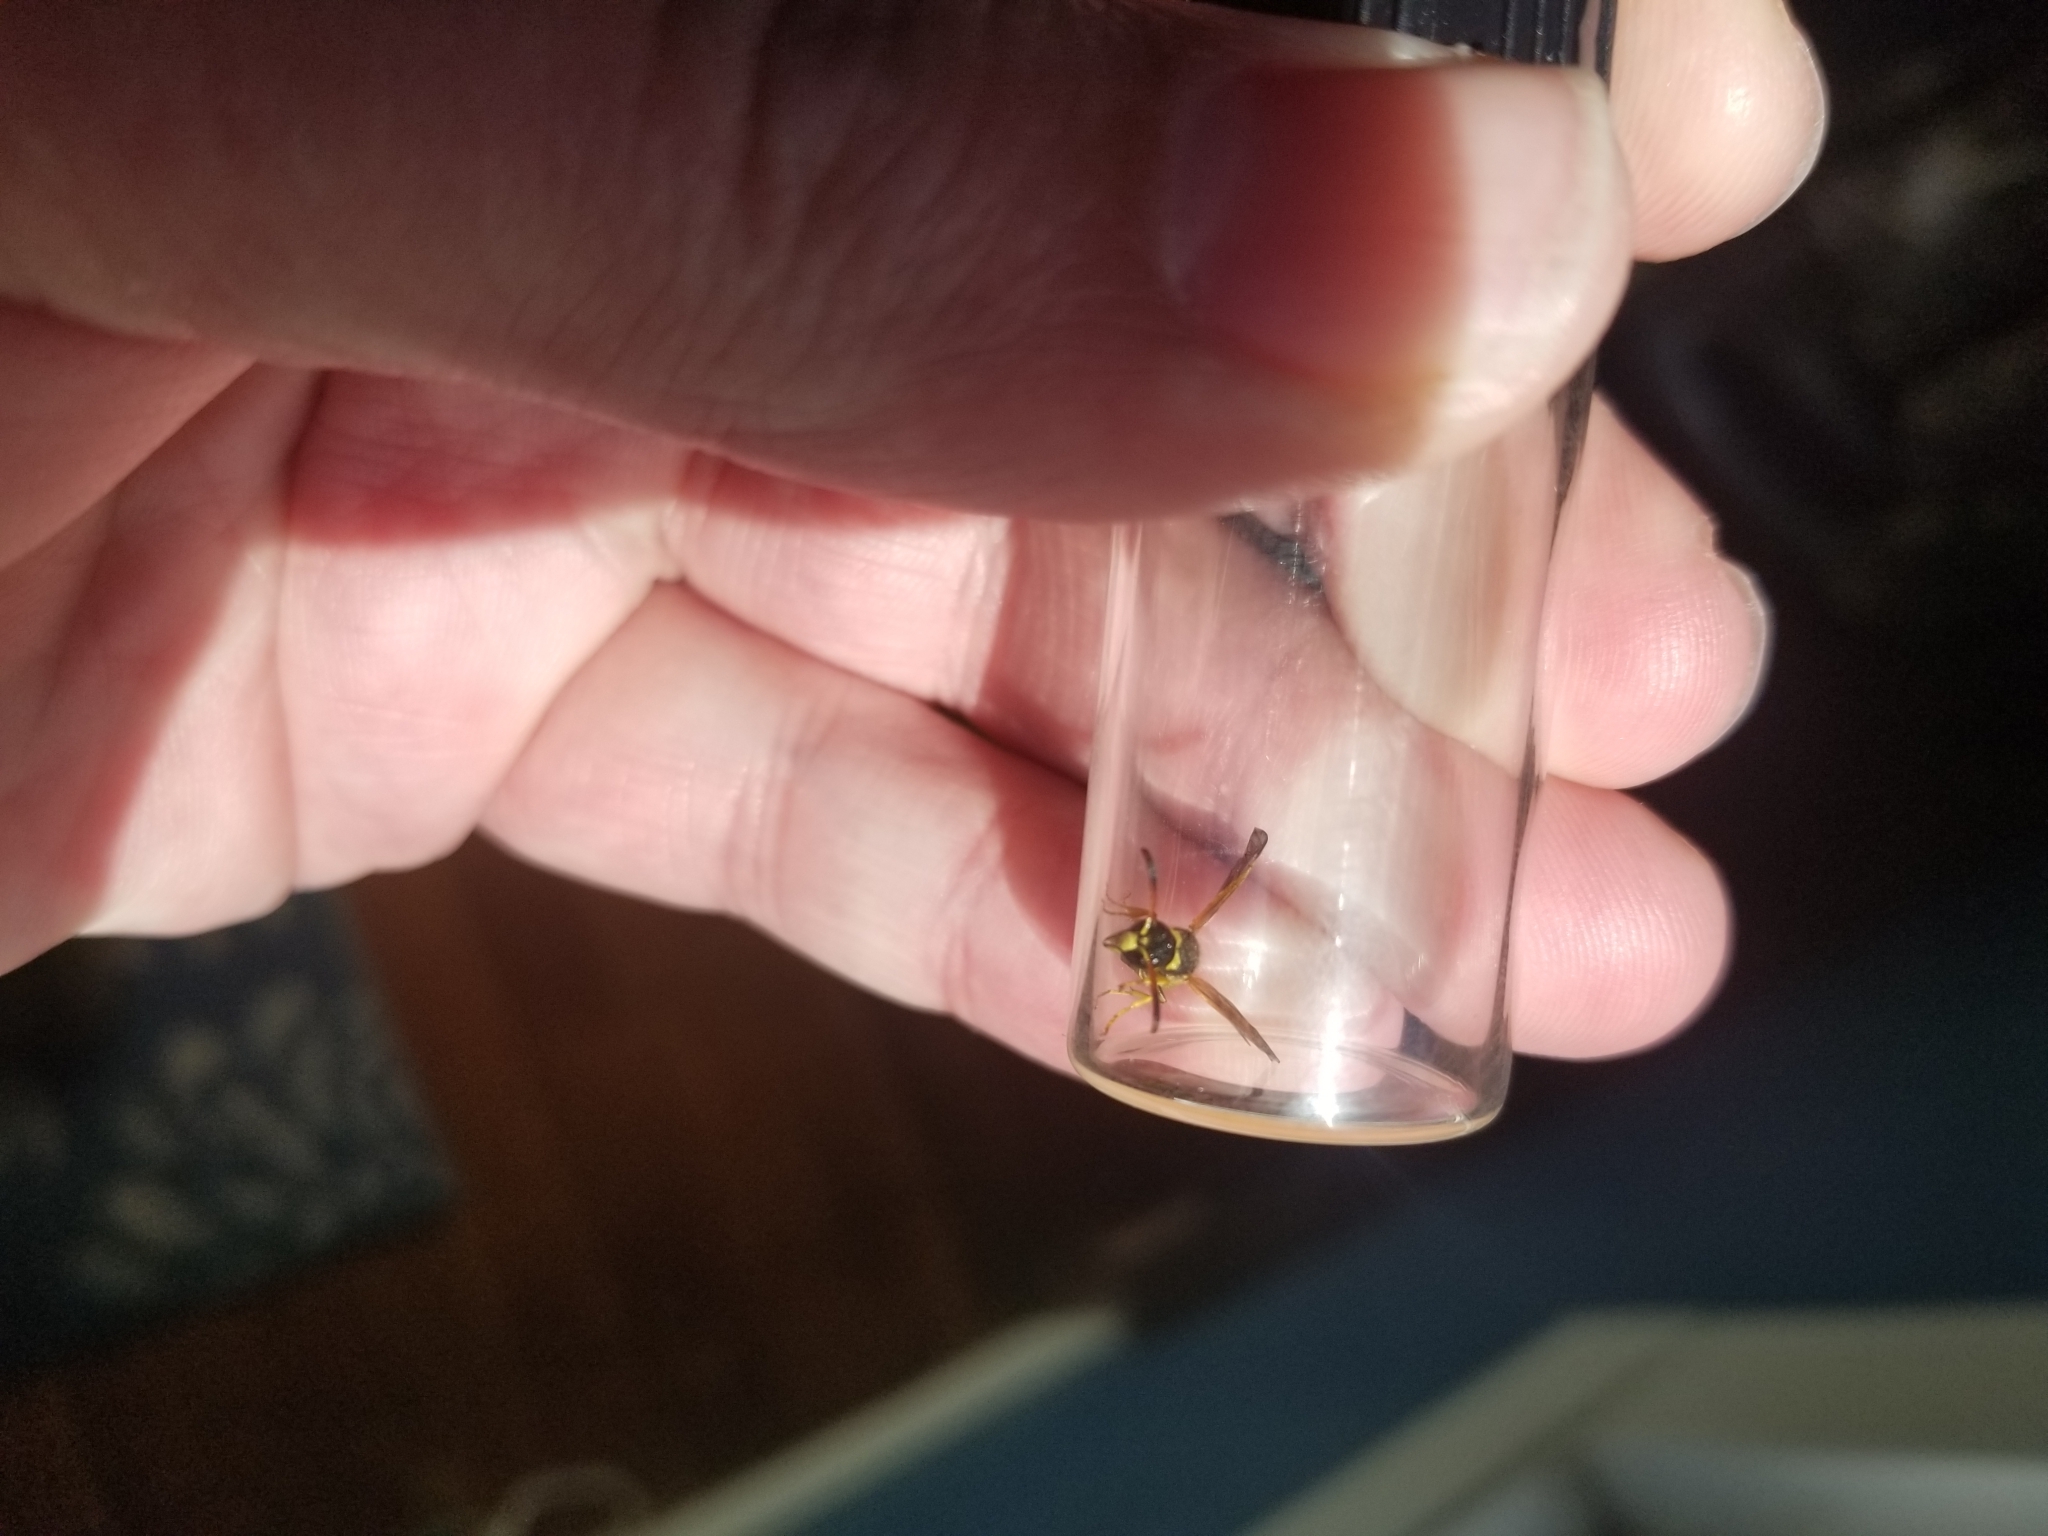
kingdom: Animalia
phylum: Arthropoda
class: Insecta
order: Hymenoptera
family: Vespidae
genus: Ancistrocerus
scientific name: Ancistrocerus
